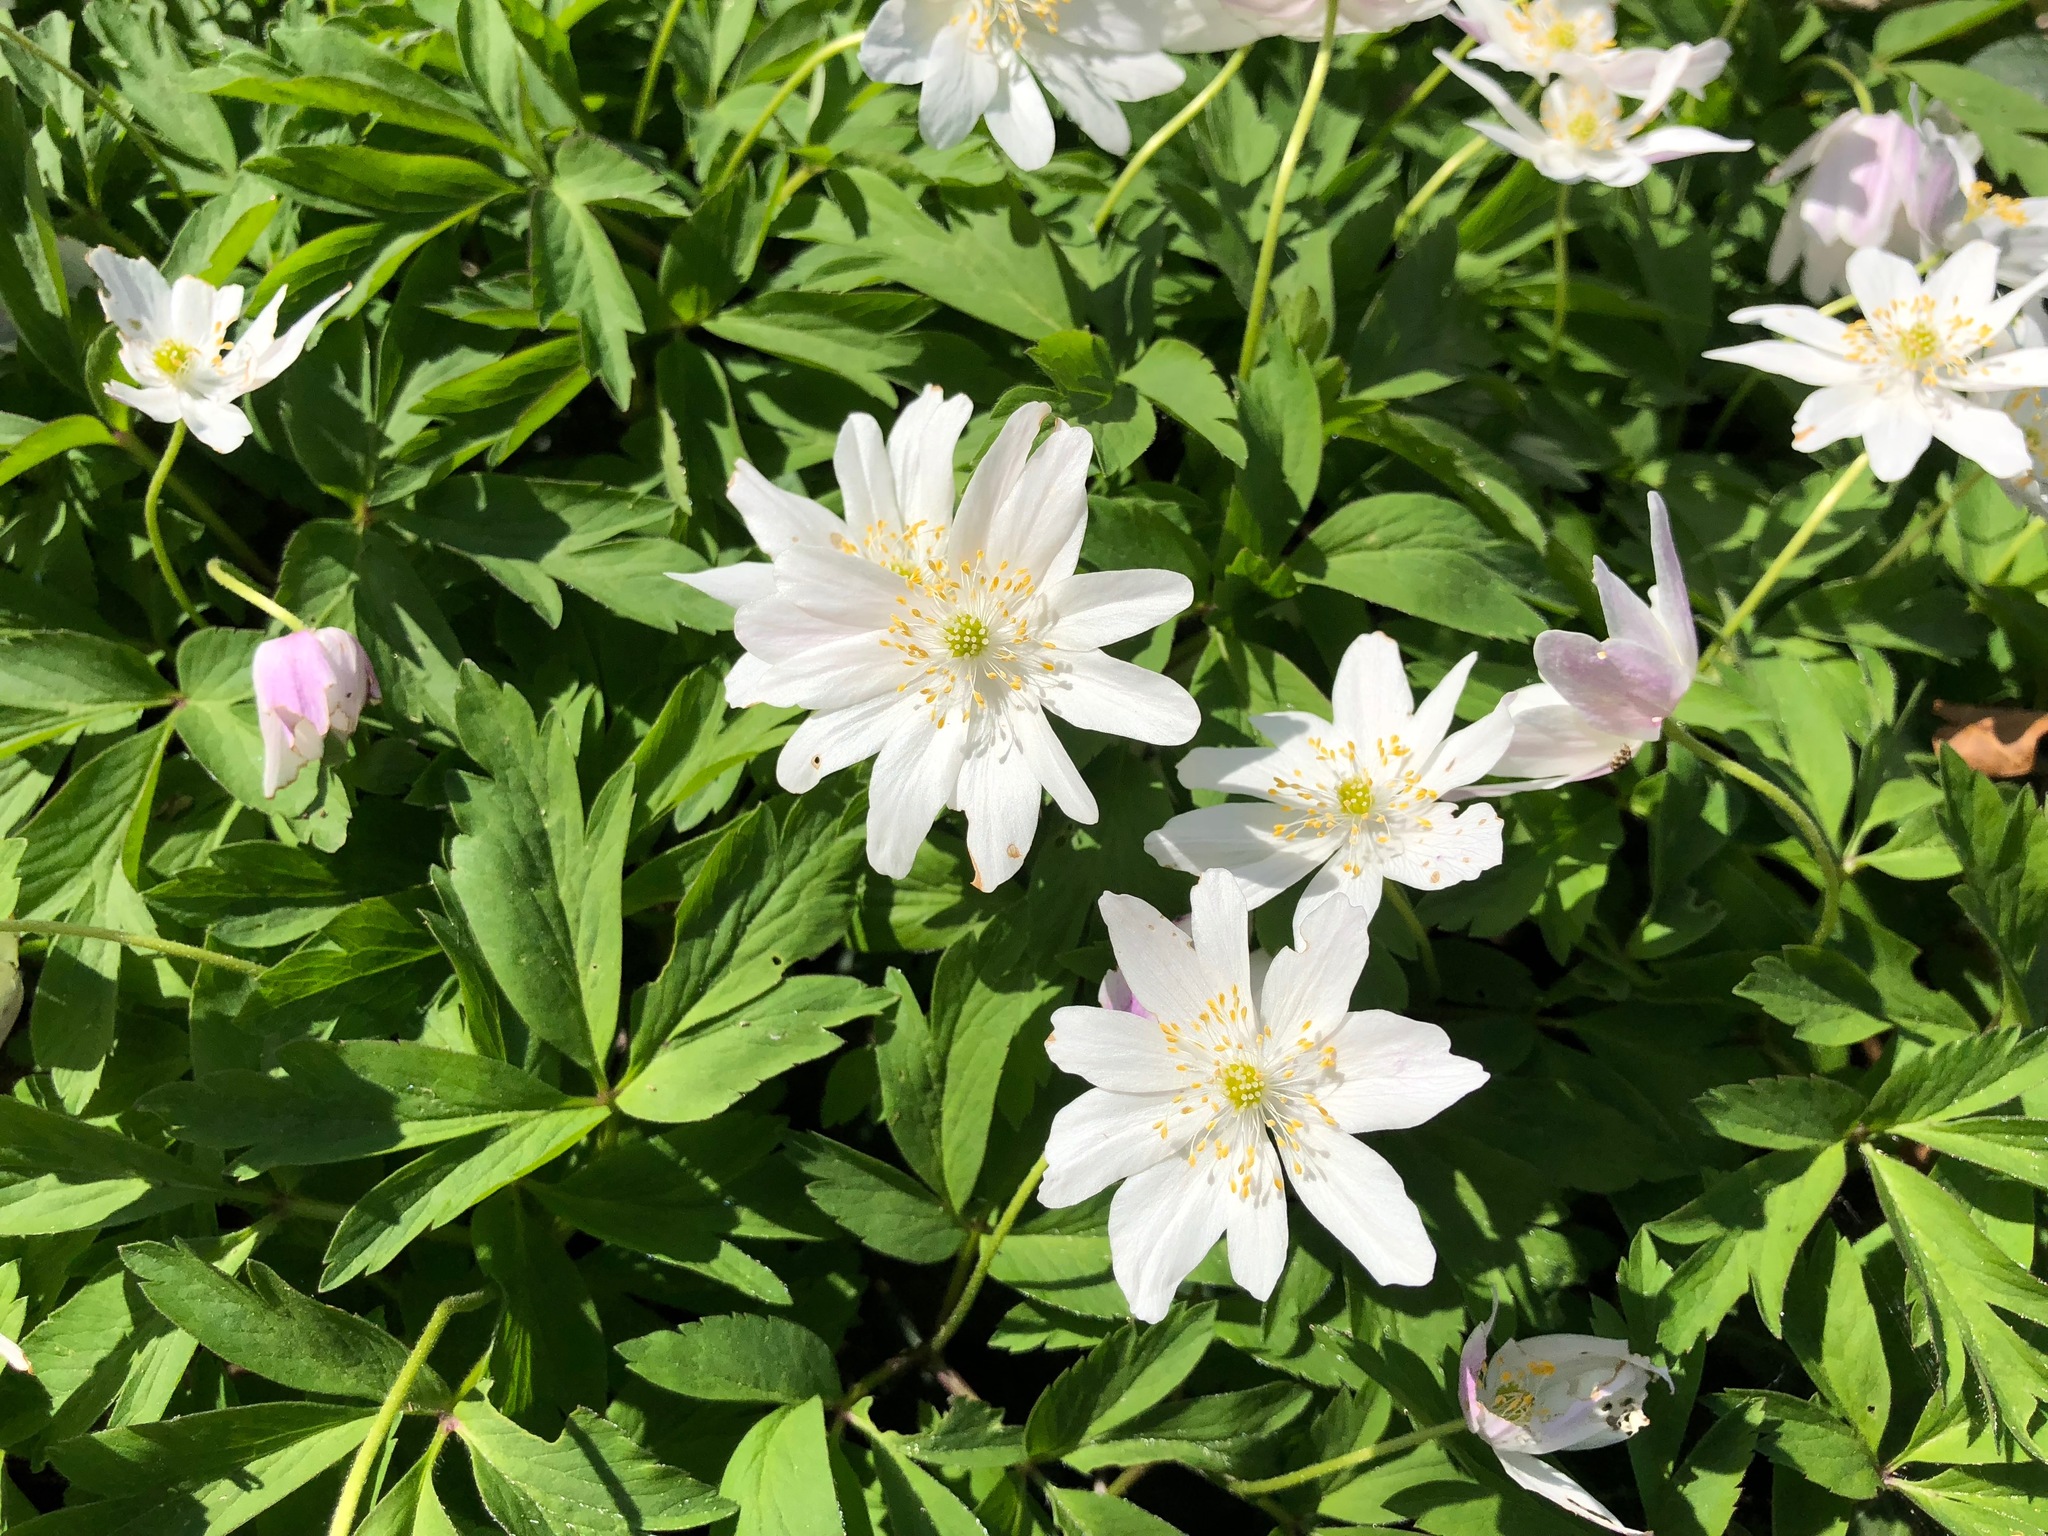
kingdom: Plantae
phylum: Tracheophyta
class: Magnoliopsida
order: Ranunculales
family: Ranunculaceae
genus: Anemone
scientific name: Anemone nemorosa
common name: Wood anemone
